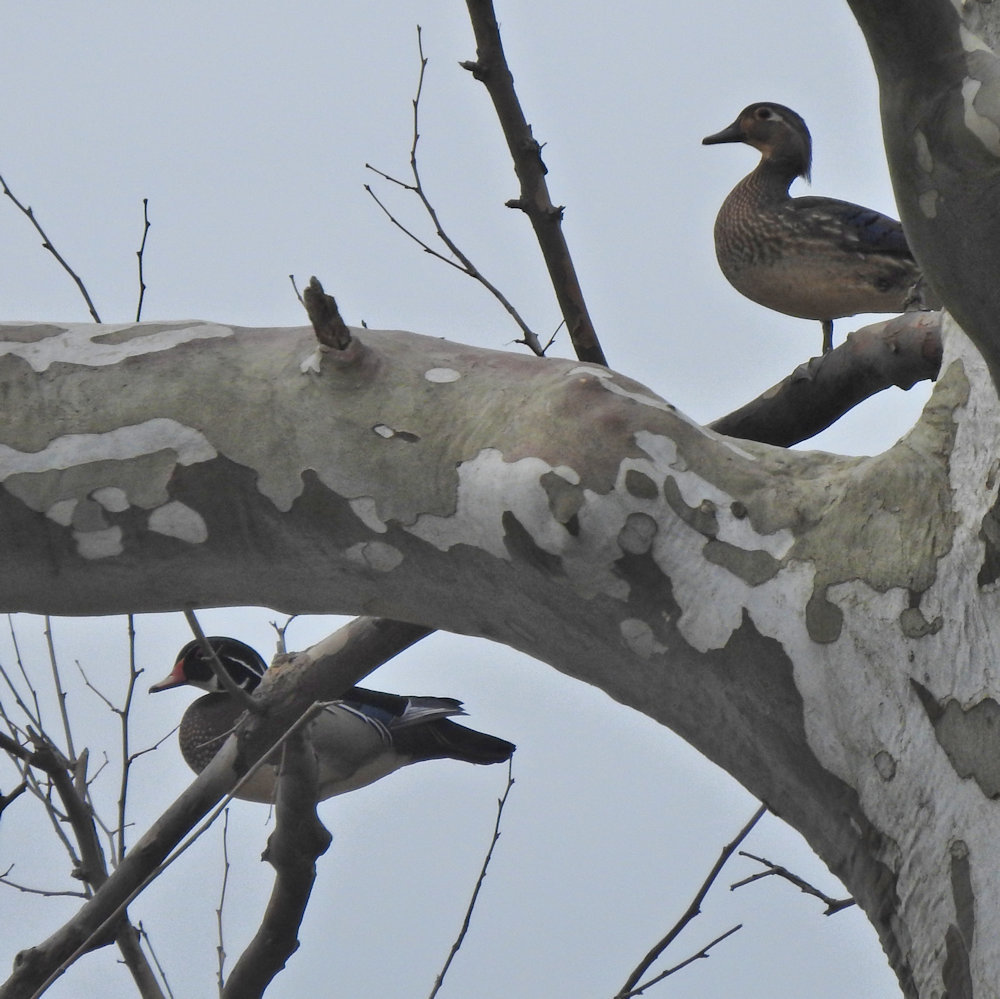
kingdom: Animalia
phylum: Chordata
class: Aves
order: Anseriformes
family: Anatidae
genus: Aix
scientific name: Aix sponsa
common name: Wood duck
